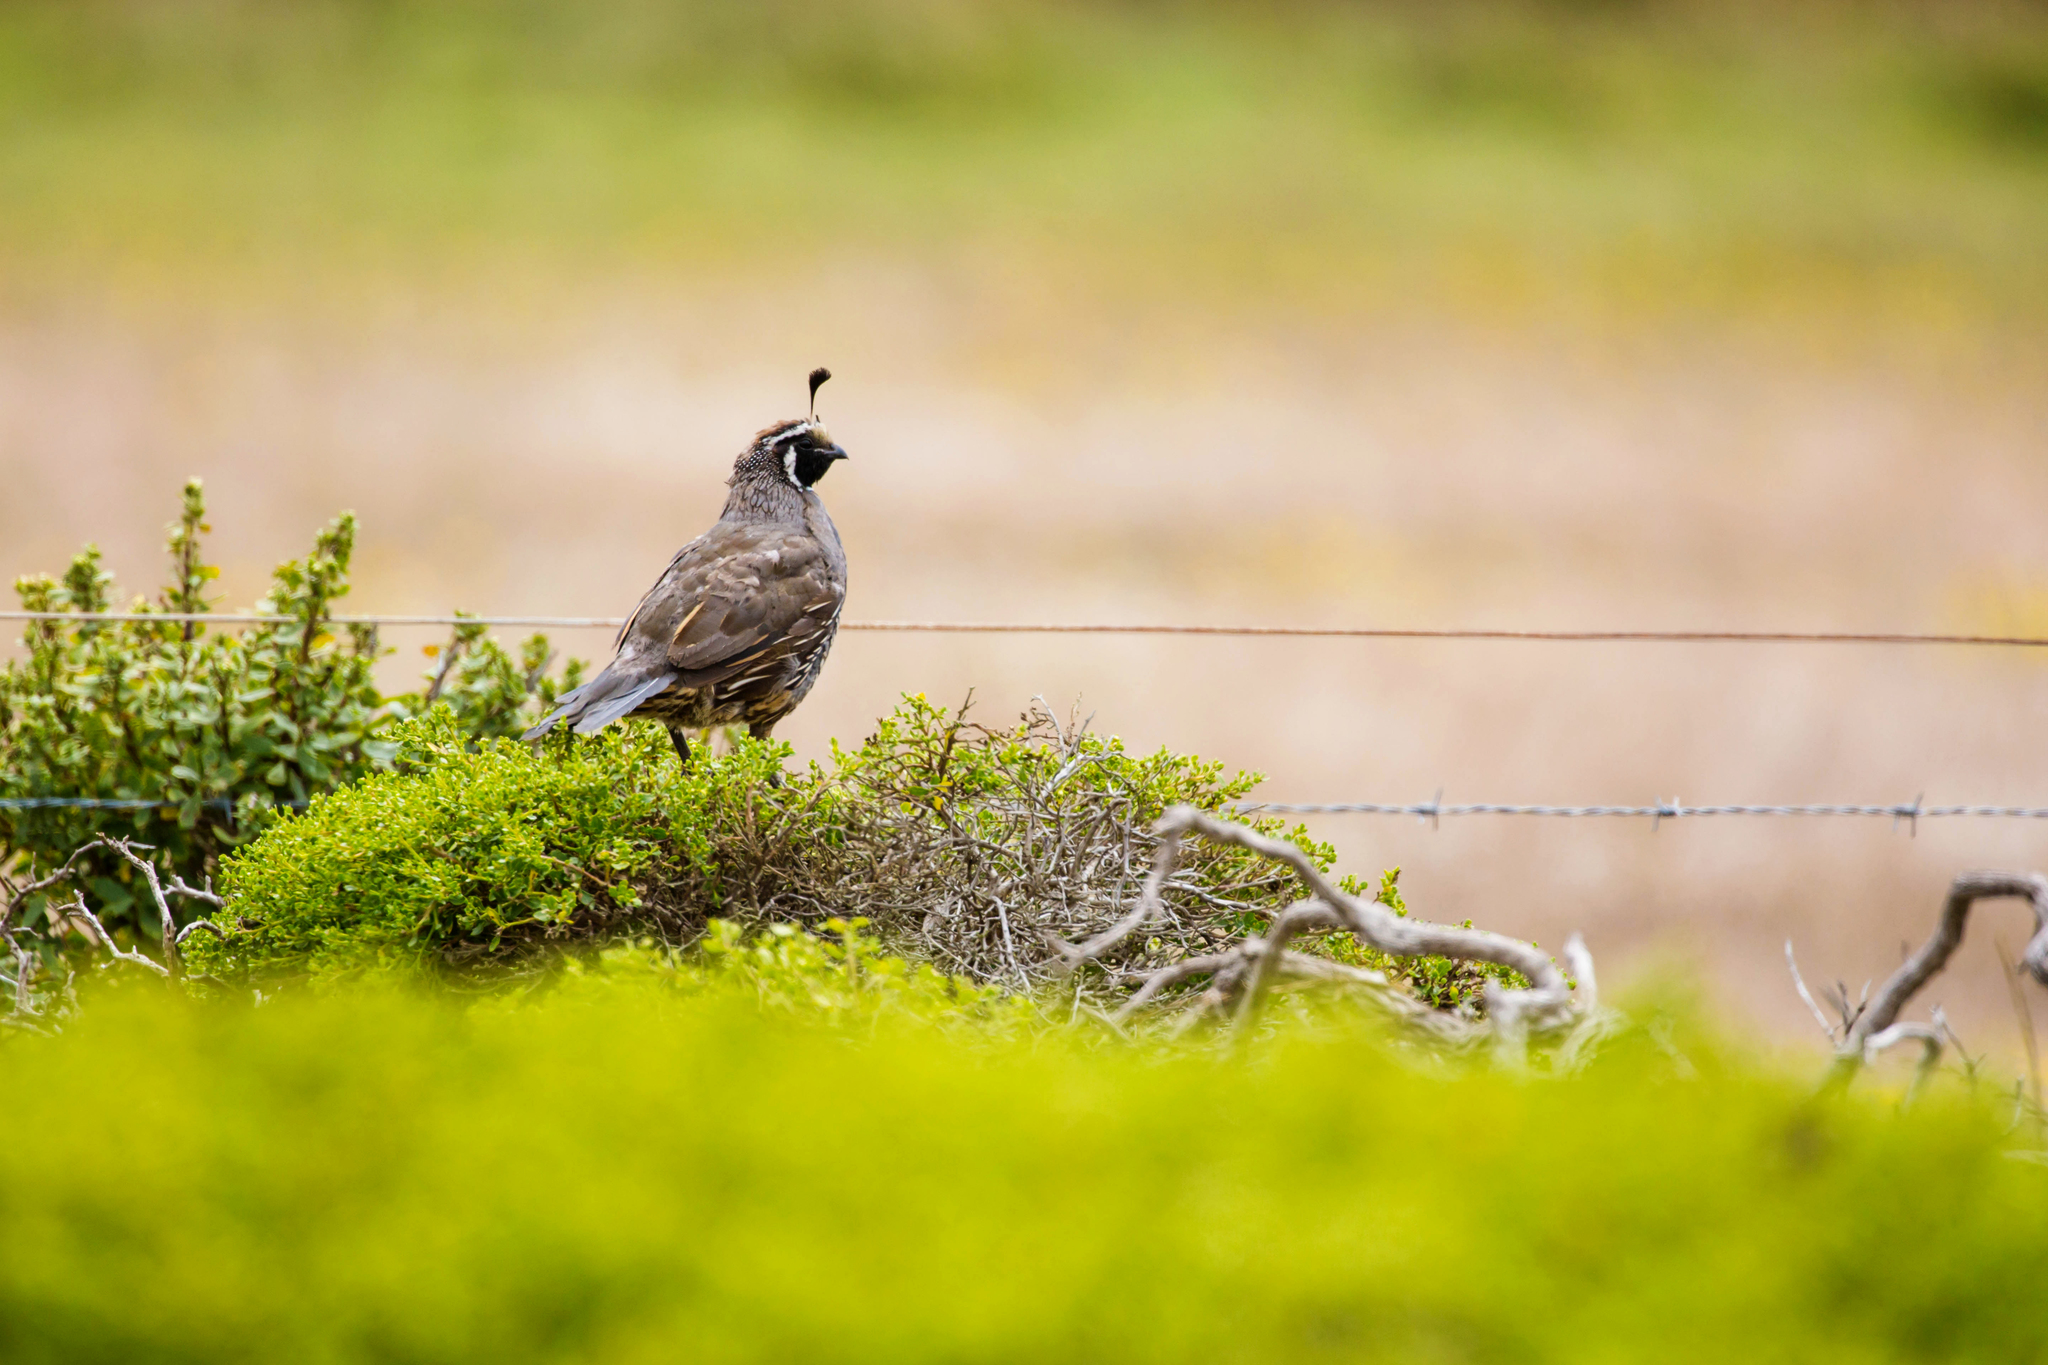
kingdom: Animalia
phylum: Chordata
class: Aves
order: Galliformes
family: Odontophoridae
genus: Callipepla
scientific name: Callipepla californica
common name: California quail
